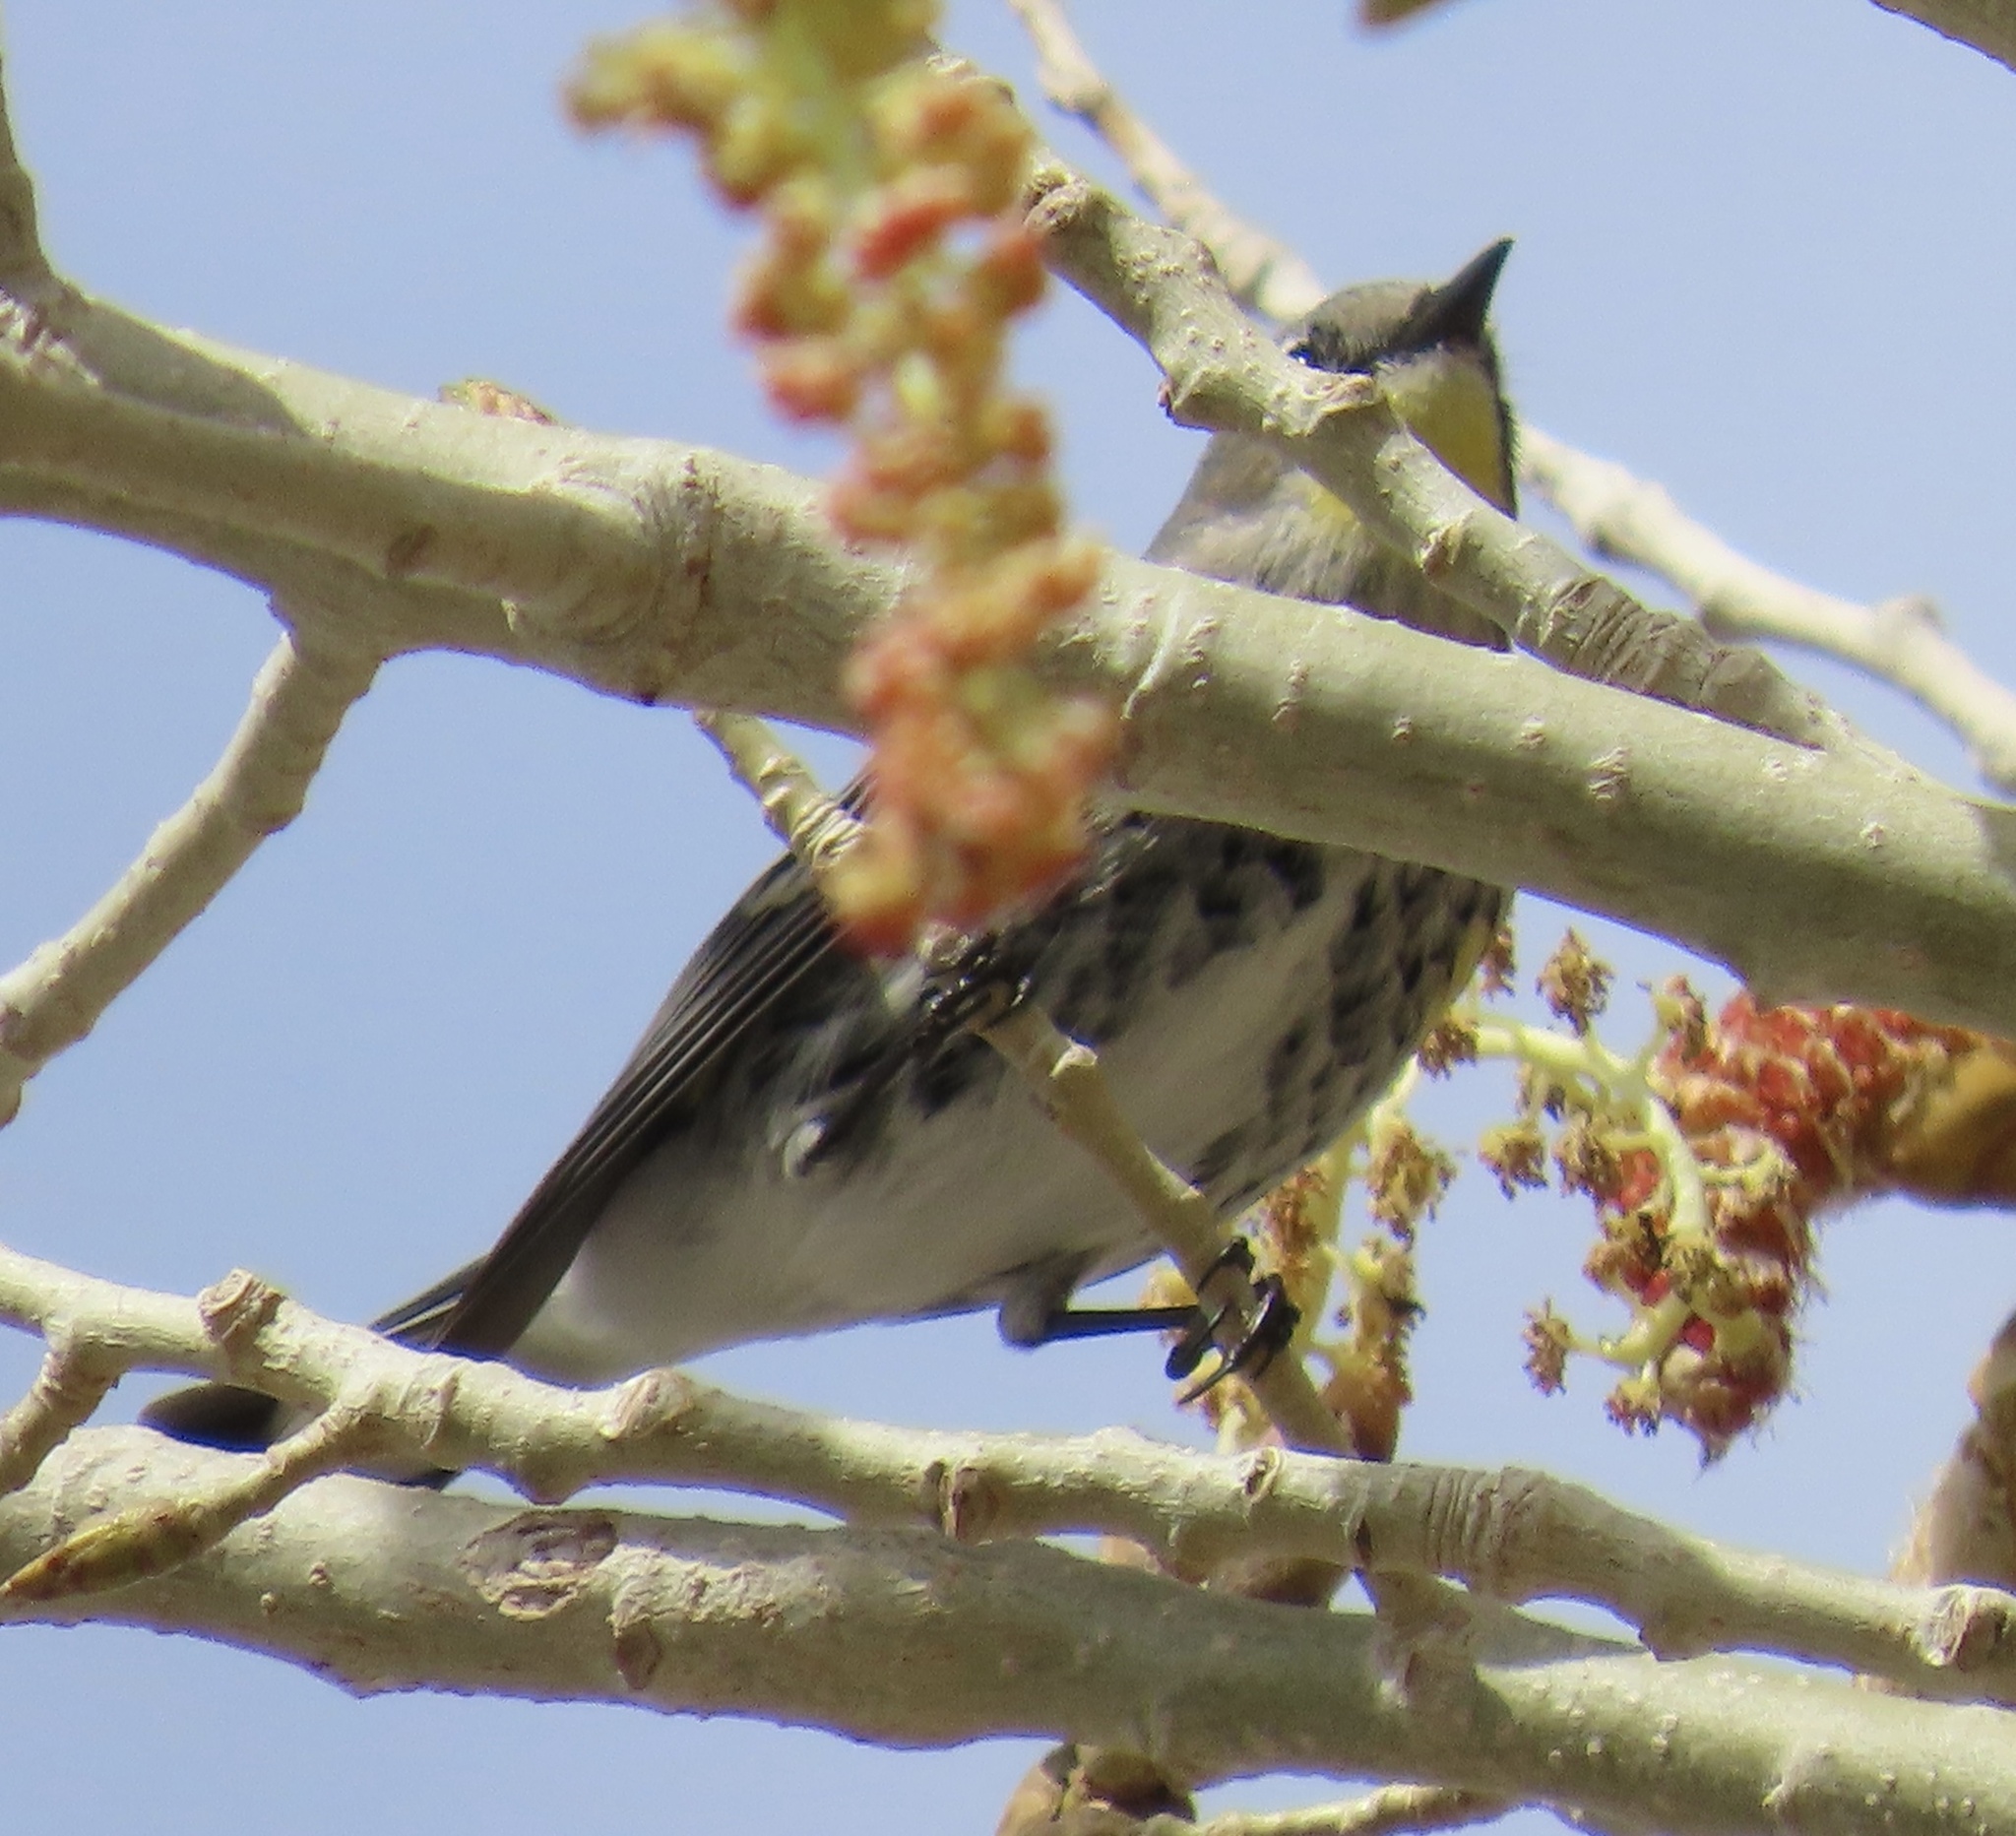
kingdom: Animalia
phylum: Chordata
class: Aves
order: Passeriformes
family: Parulidae
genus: Setophaga
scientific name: Setophaga coronata
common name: Myrtle warbler
